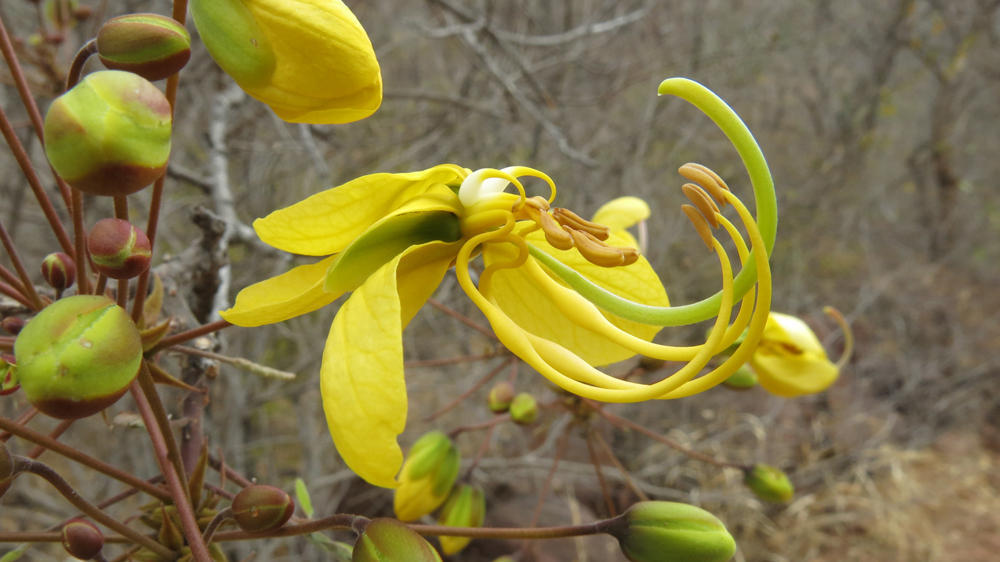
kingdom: Plantae
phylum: Tracheophyta
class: Magnoliopsida
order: Fabales
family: Fabaceae
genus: Cassia
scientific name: Cassia abbreviata
